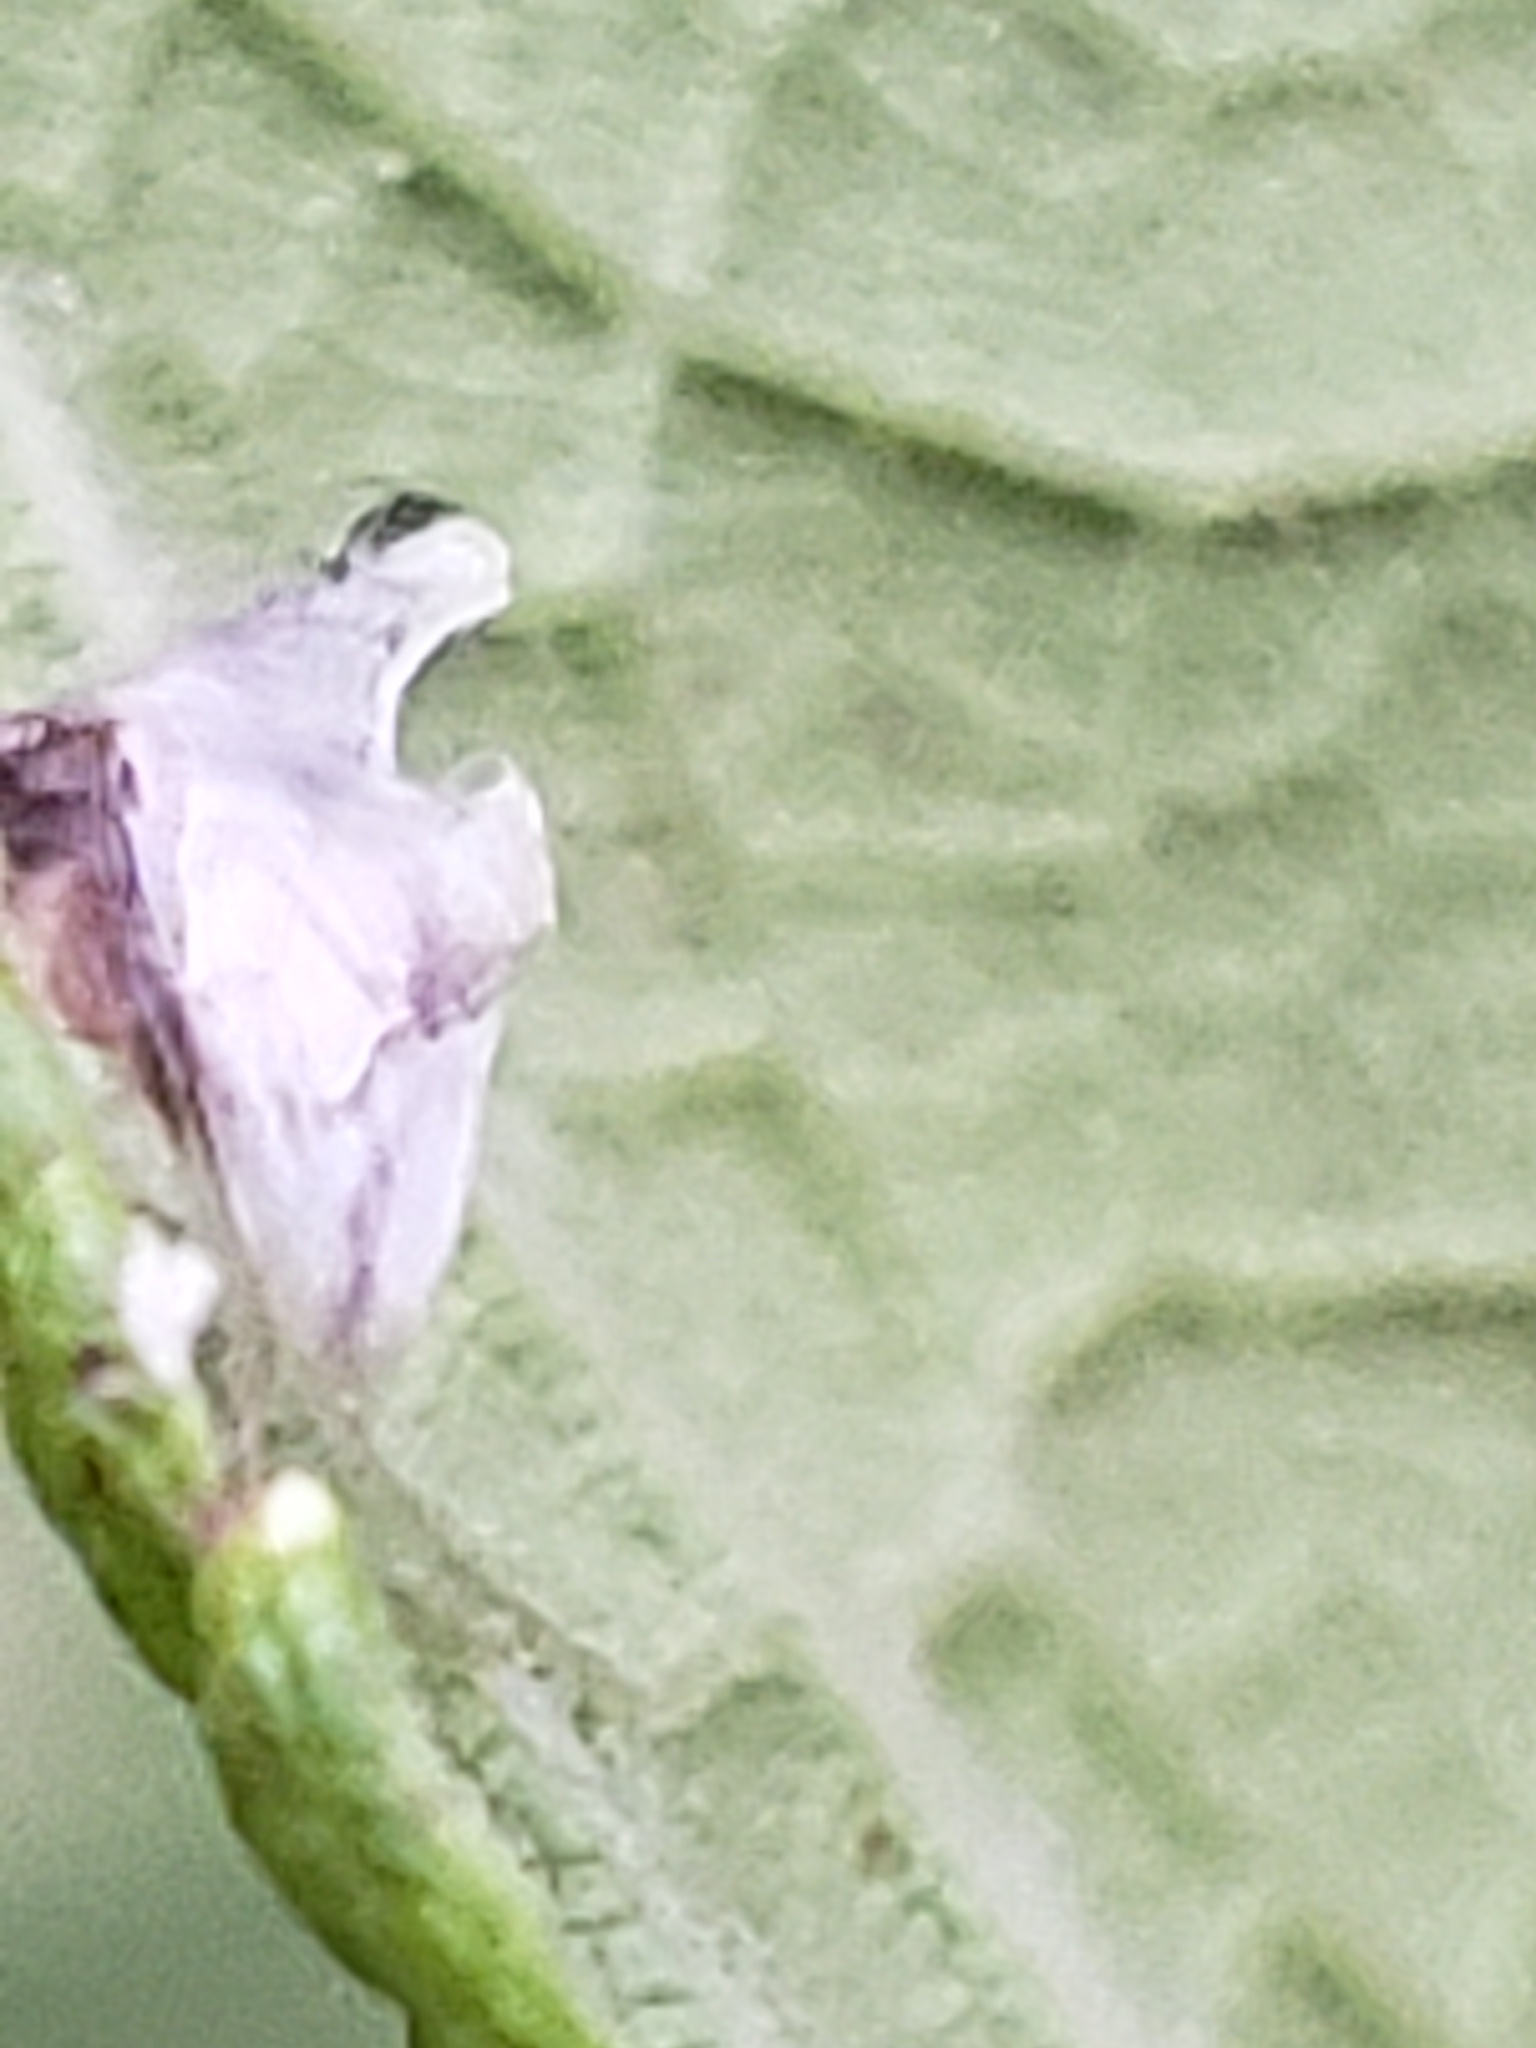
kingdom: Animalia
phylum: Arthropoda
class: Insecta
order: Hemiptera
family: Membracidae
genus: Entylia
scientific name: Entylia carinata
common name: Keeled treehopper
